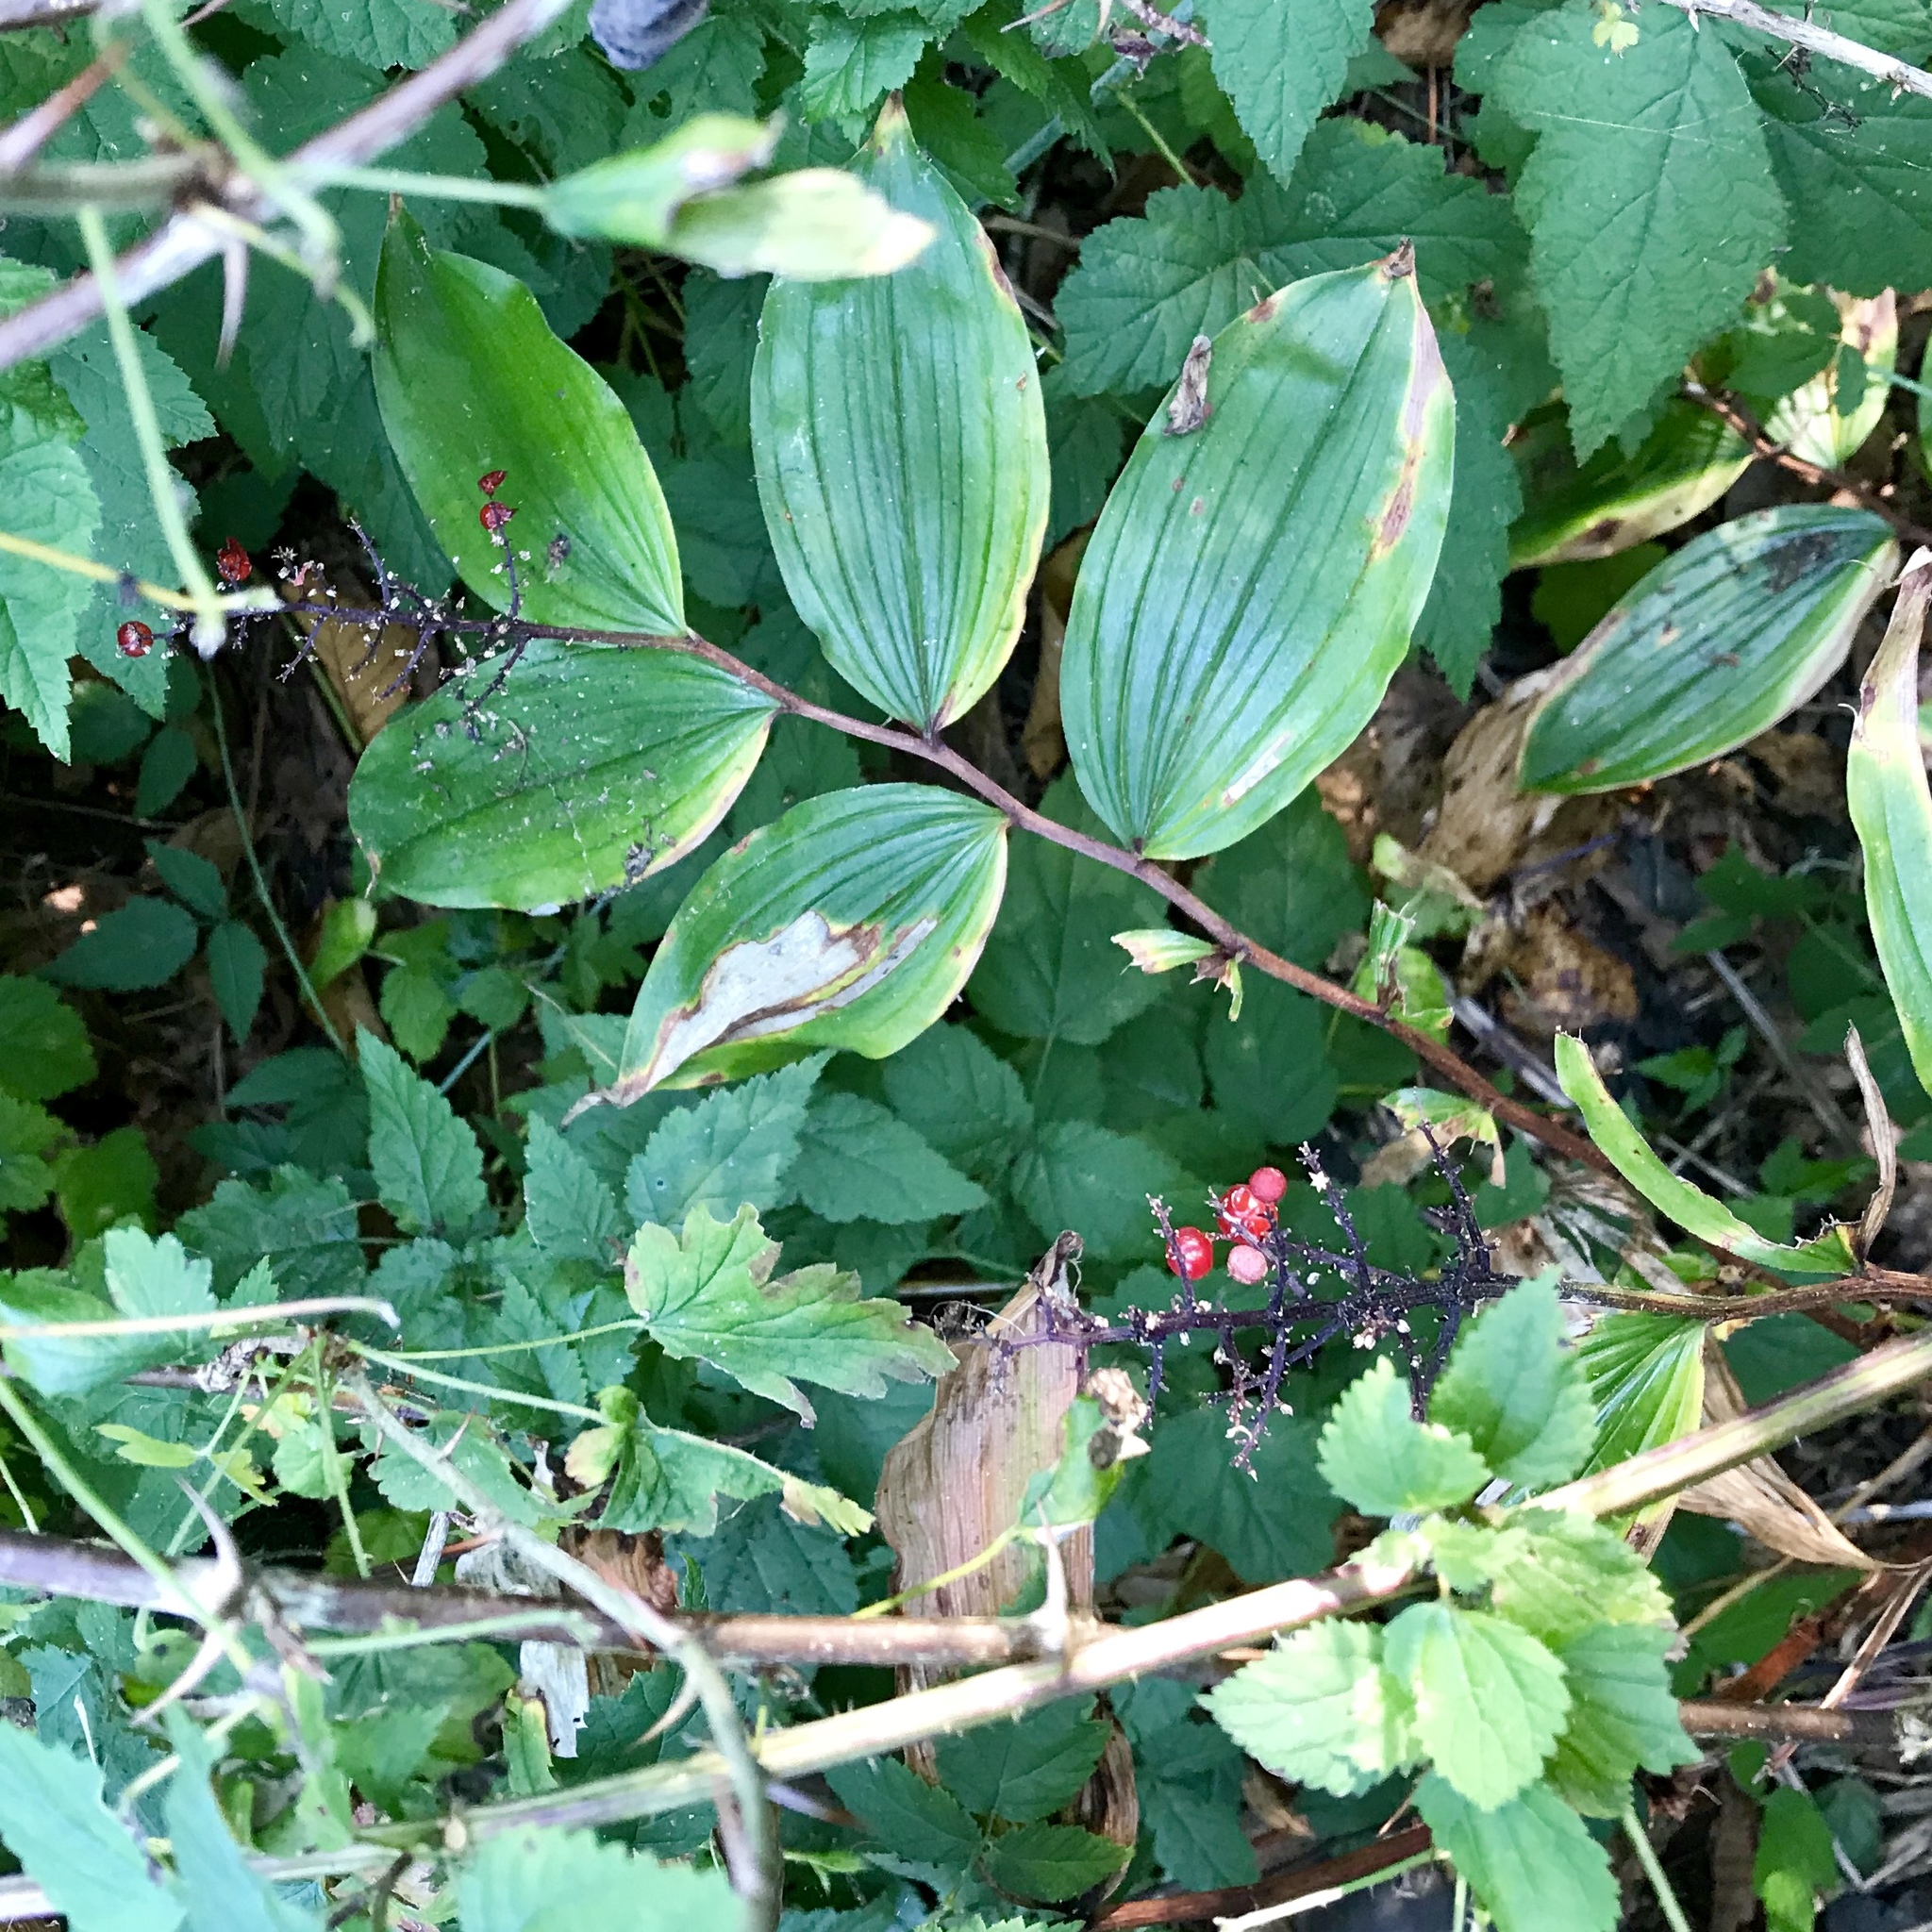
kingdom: Plantae
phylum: Tracheophyta
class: Liliopsida
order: Asparagales
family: Asparagaceae
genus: Maianthemum
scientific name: Maianthemum racemosum
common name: False spikenard
